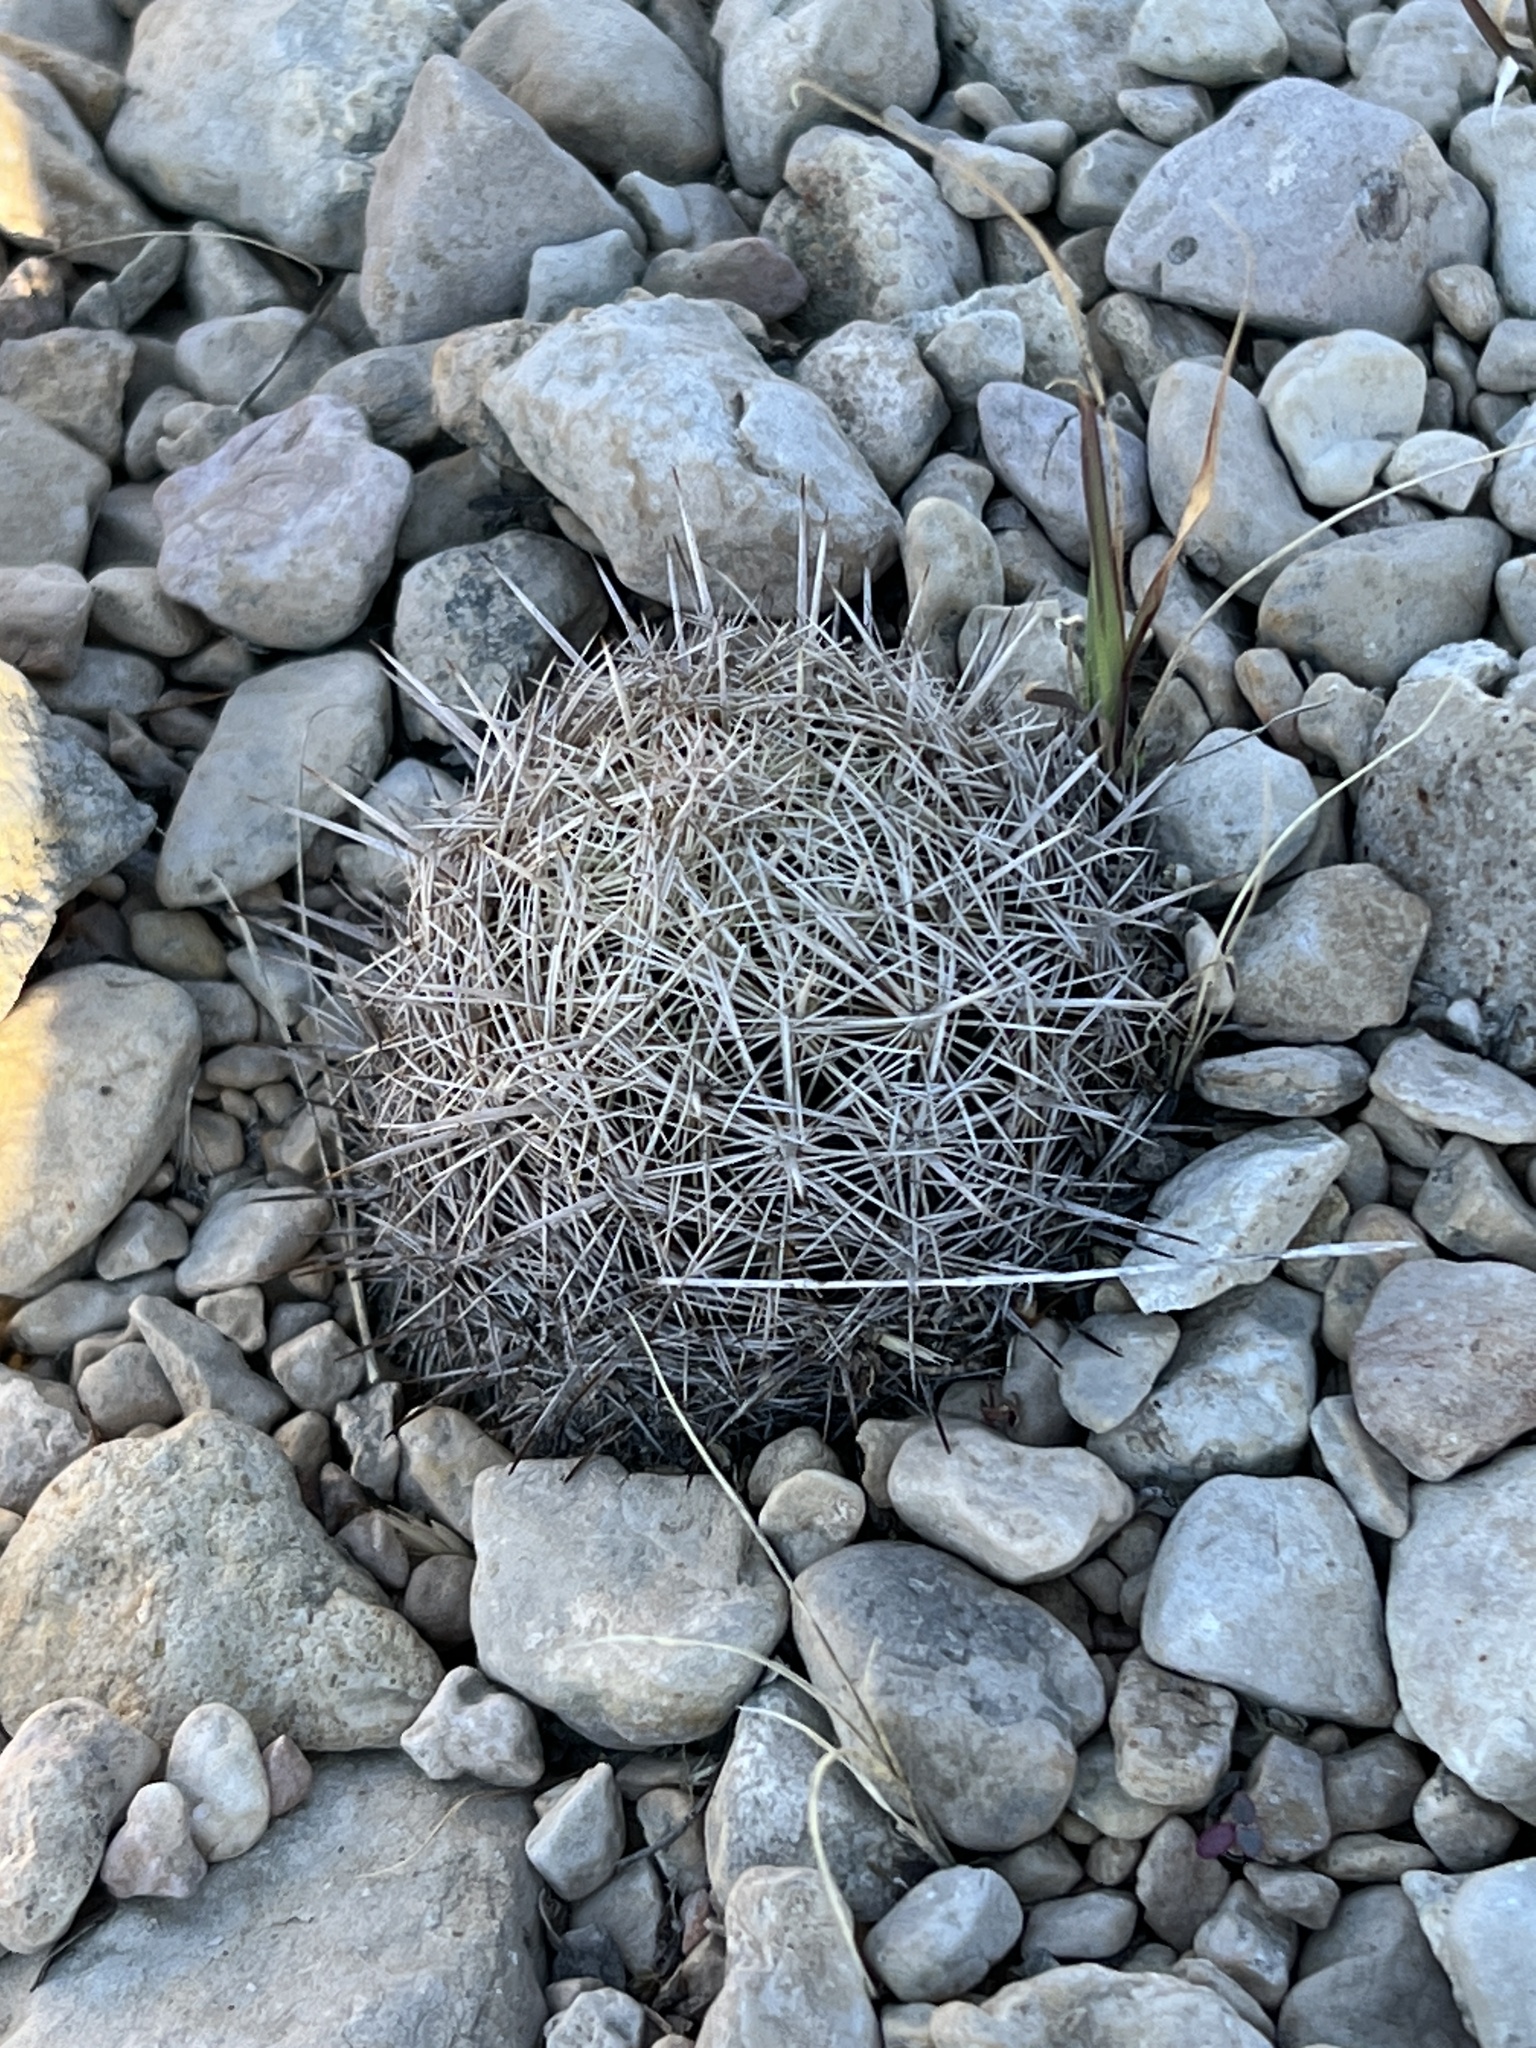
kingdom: Plantae
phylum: Tracheophyta
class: Magnoliopsida
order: Caryophyllales
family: Cactaceae
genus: Coryphantha
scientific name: Coryphantha echinus
